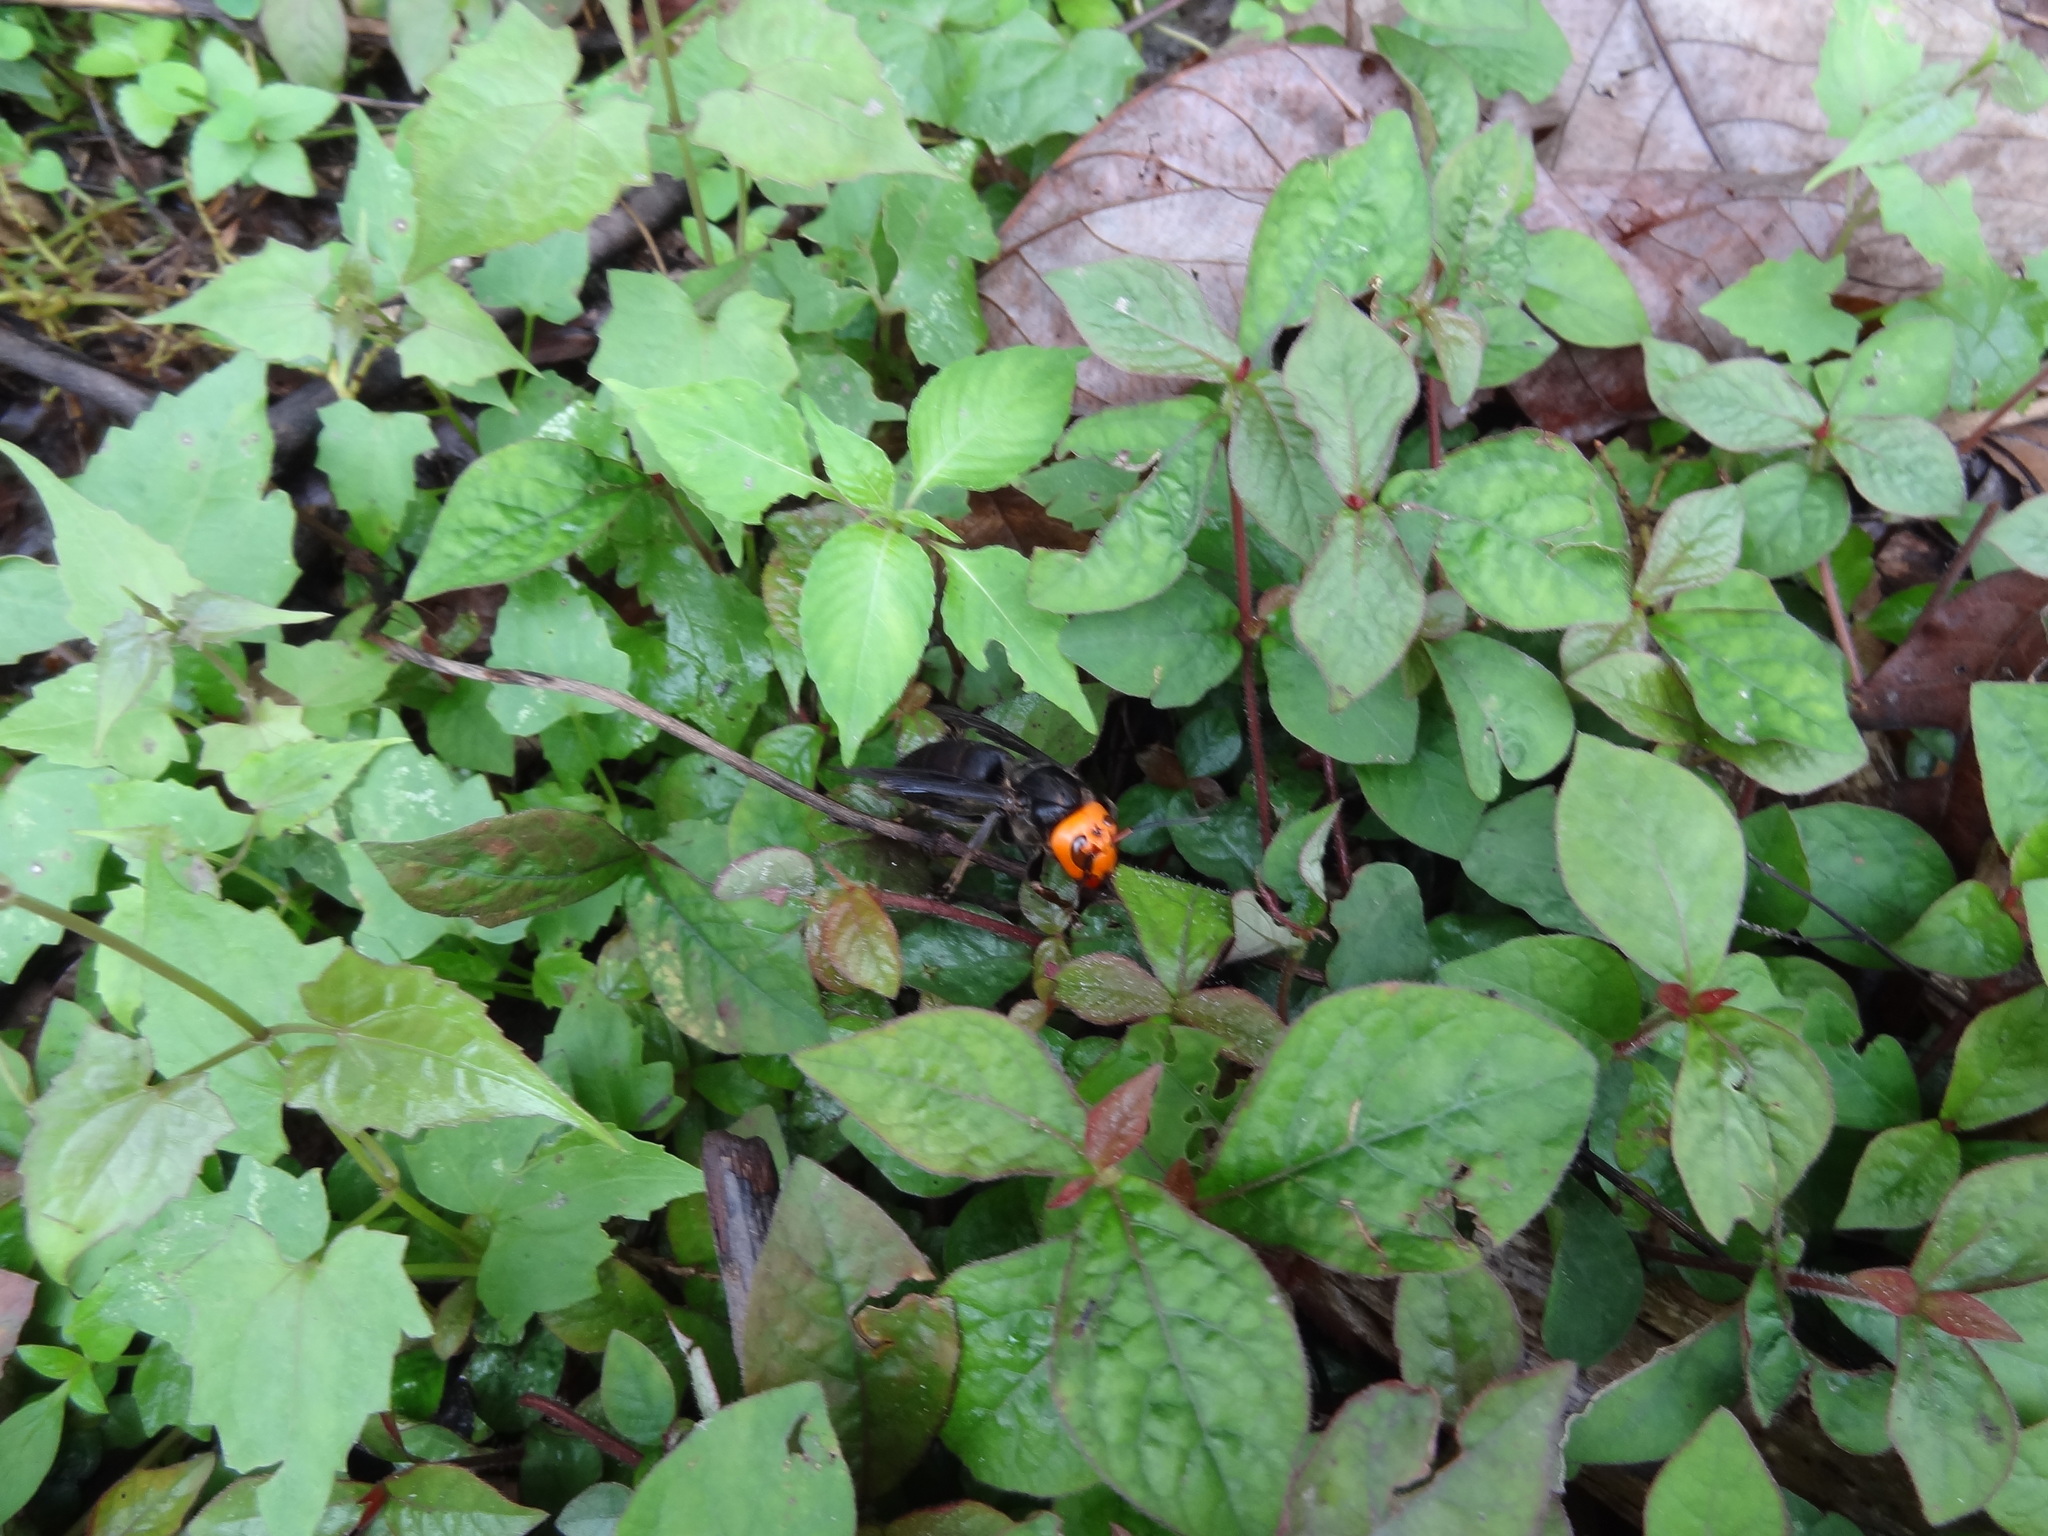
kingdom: Animalia
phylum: Arthropoda
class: Insecta
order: Hymenoptera
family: Vespidae
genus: Vespa
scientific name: Vespa mandarinia
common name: Asian giant hornet
